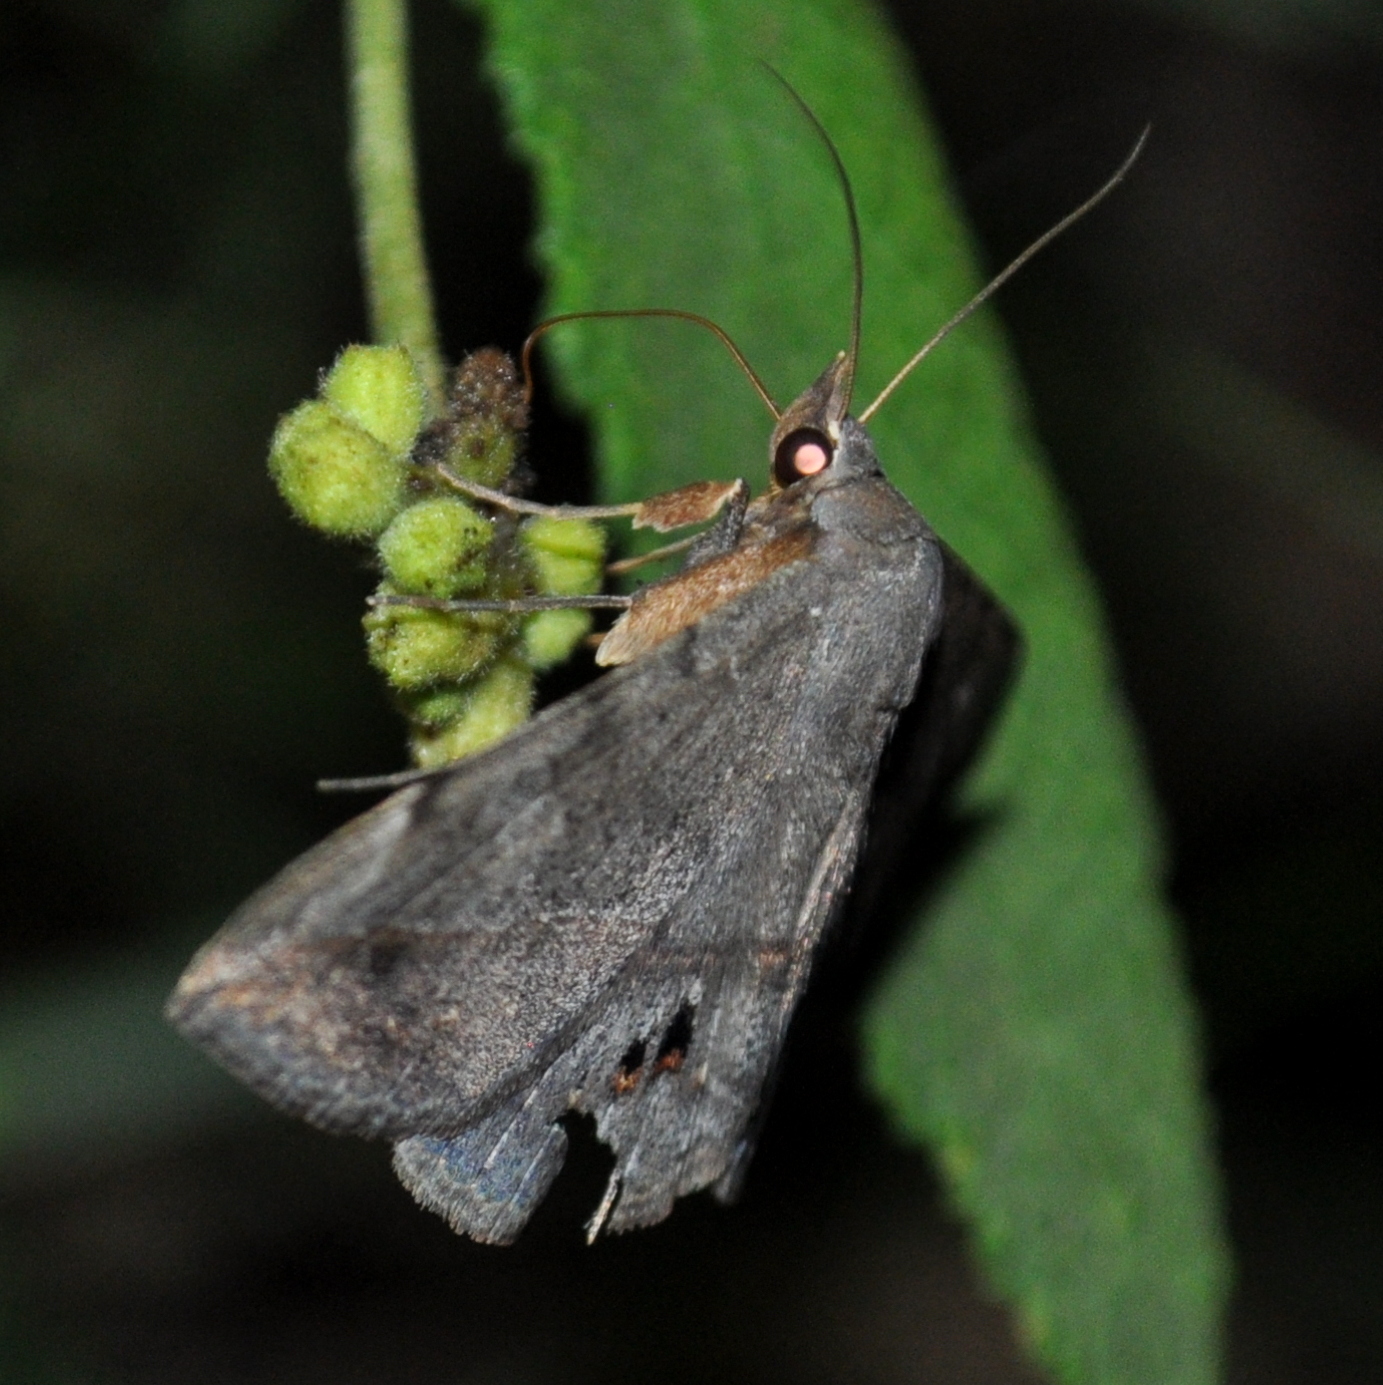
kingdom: Animalia
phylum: Arthropoda
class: Insecta
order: Lepidoptera
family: Erebidae
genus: Anticarsia
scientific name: Anticarsia gemmatalis
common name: Cutworm moth
